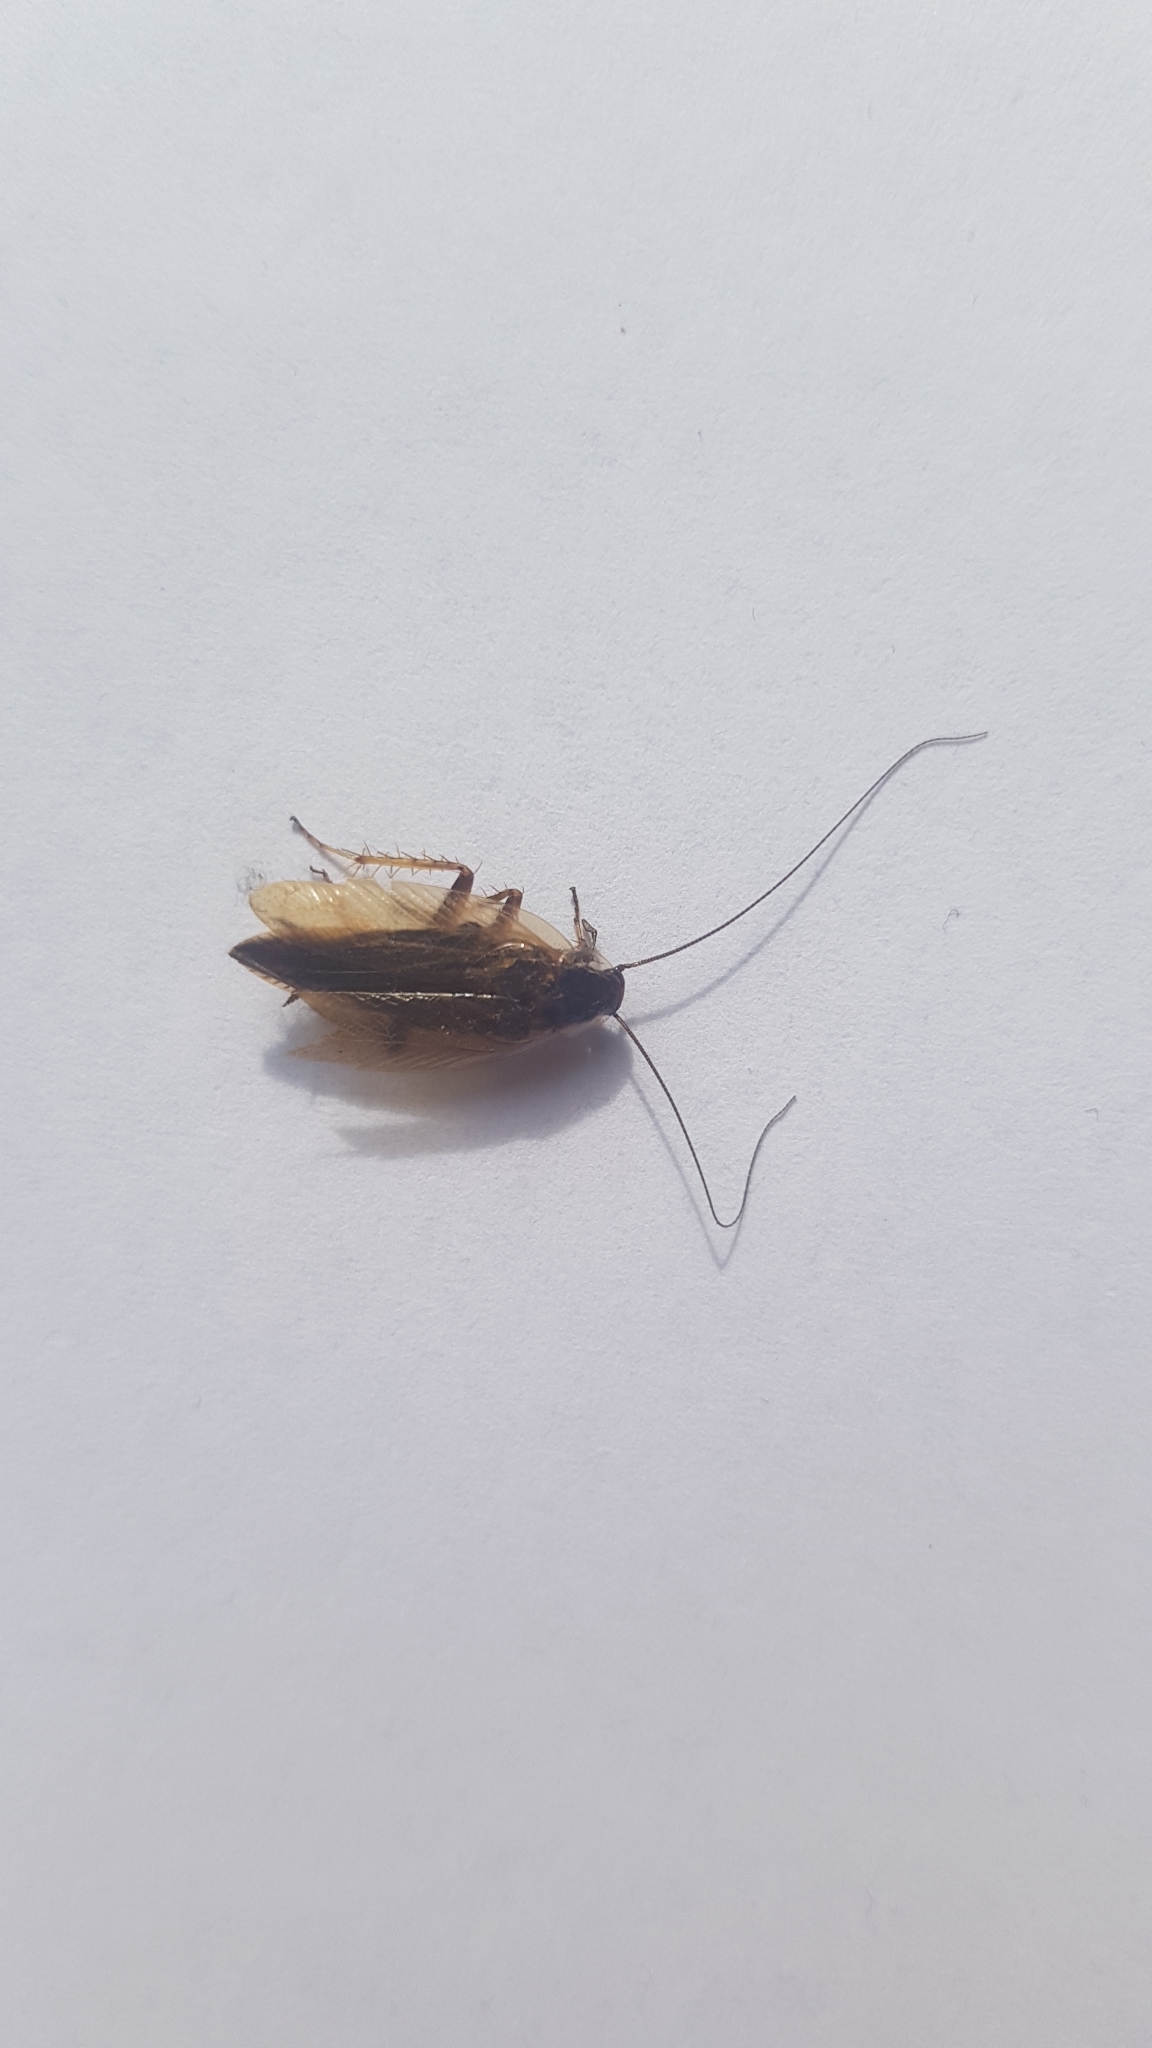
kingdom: Animalia
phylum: Arthropoda
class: Insecta
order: Blattodea
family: Ectobiidae
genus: Ectobius
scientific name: Ectobius lapponicus
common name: Dusky cockroach
